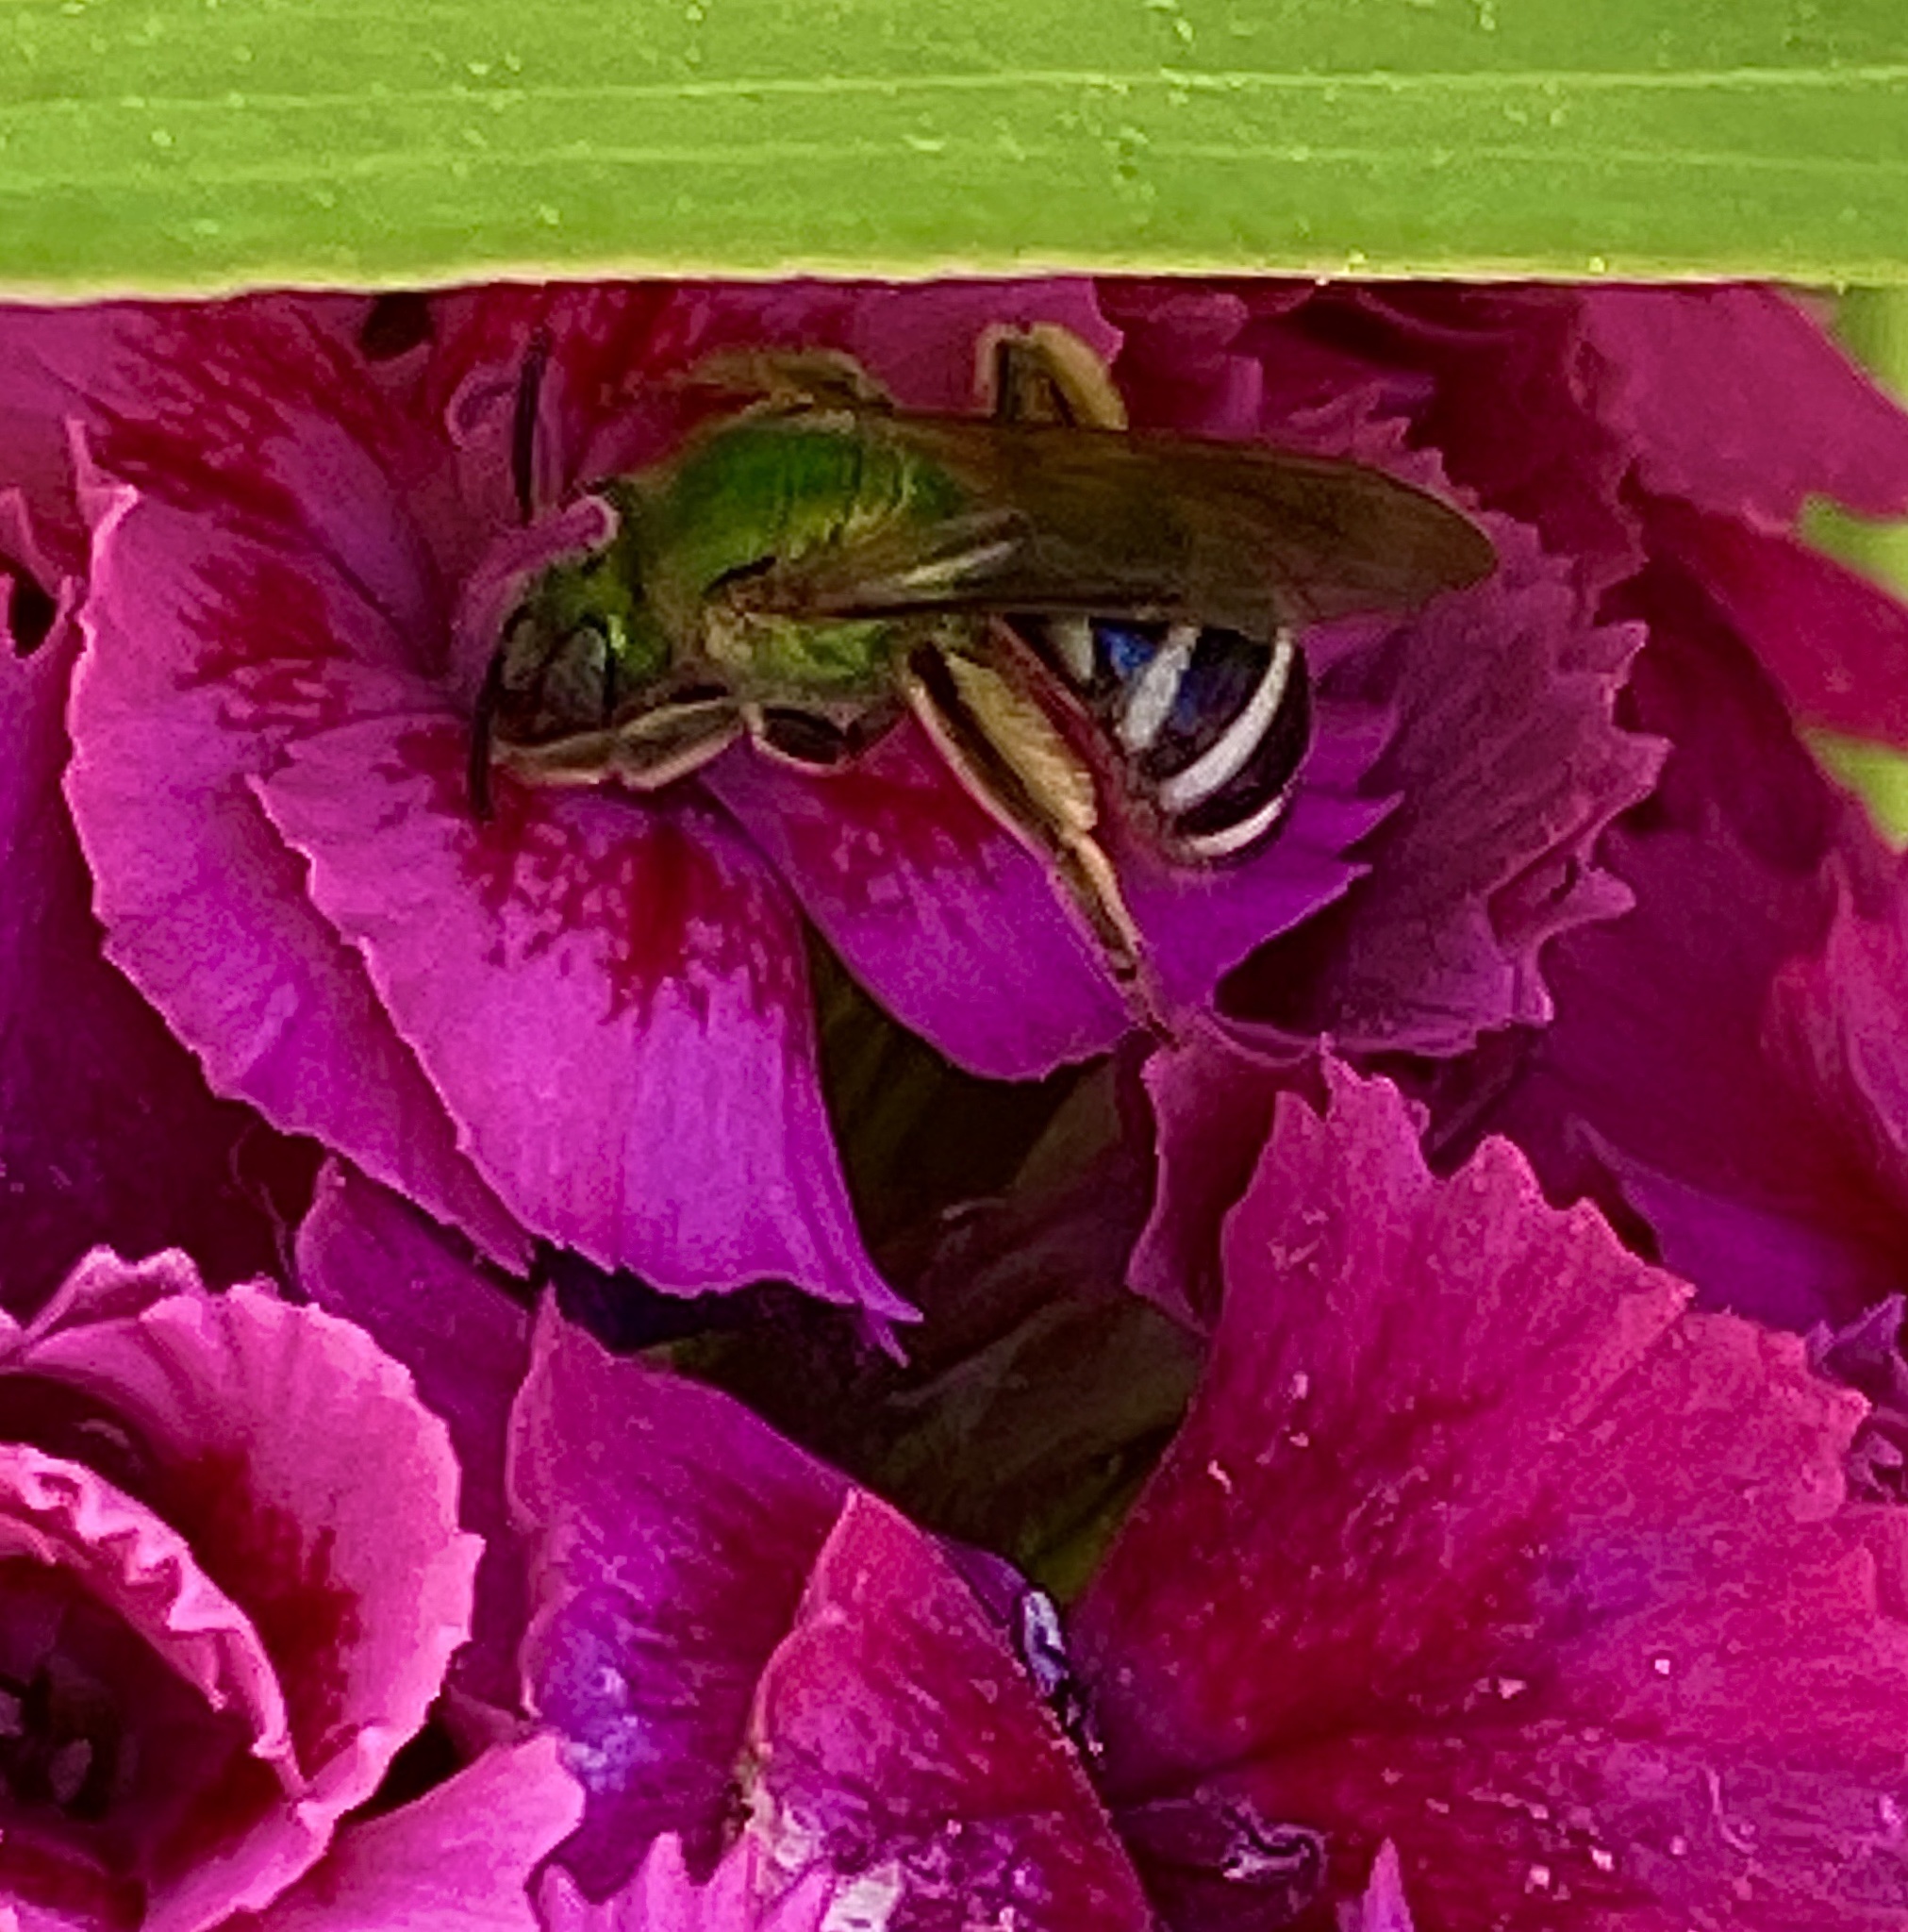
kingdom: Animalia
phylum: Arthropoda
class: Insecta
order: Hymenoptera
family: Halictidae
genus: Agapostemon
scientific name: Agapostemon virescens
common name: Bicolored striped sweat bee
